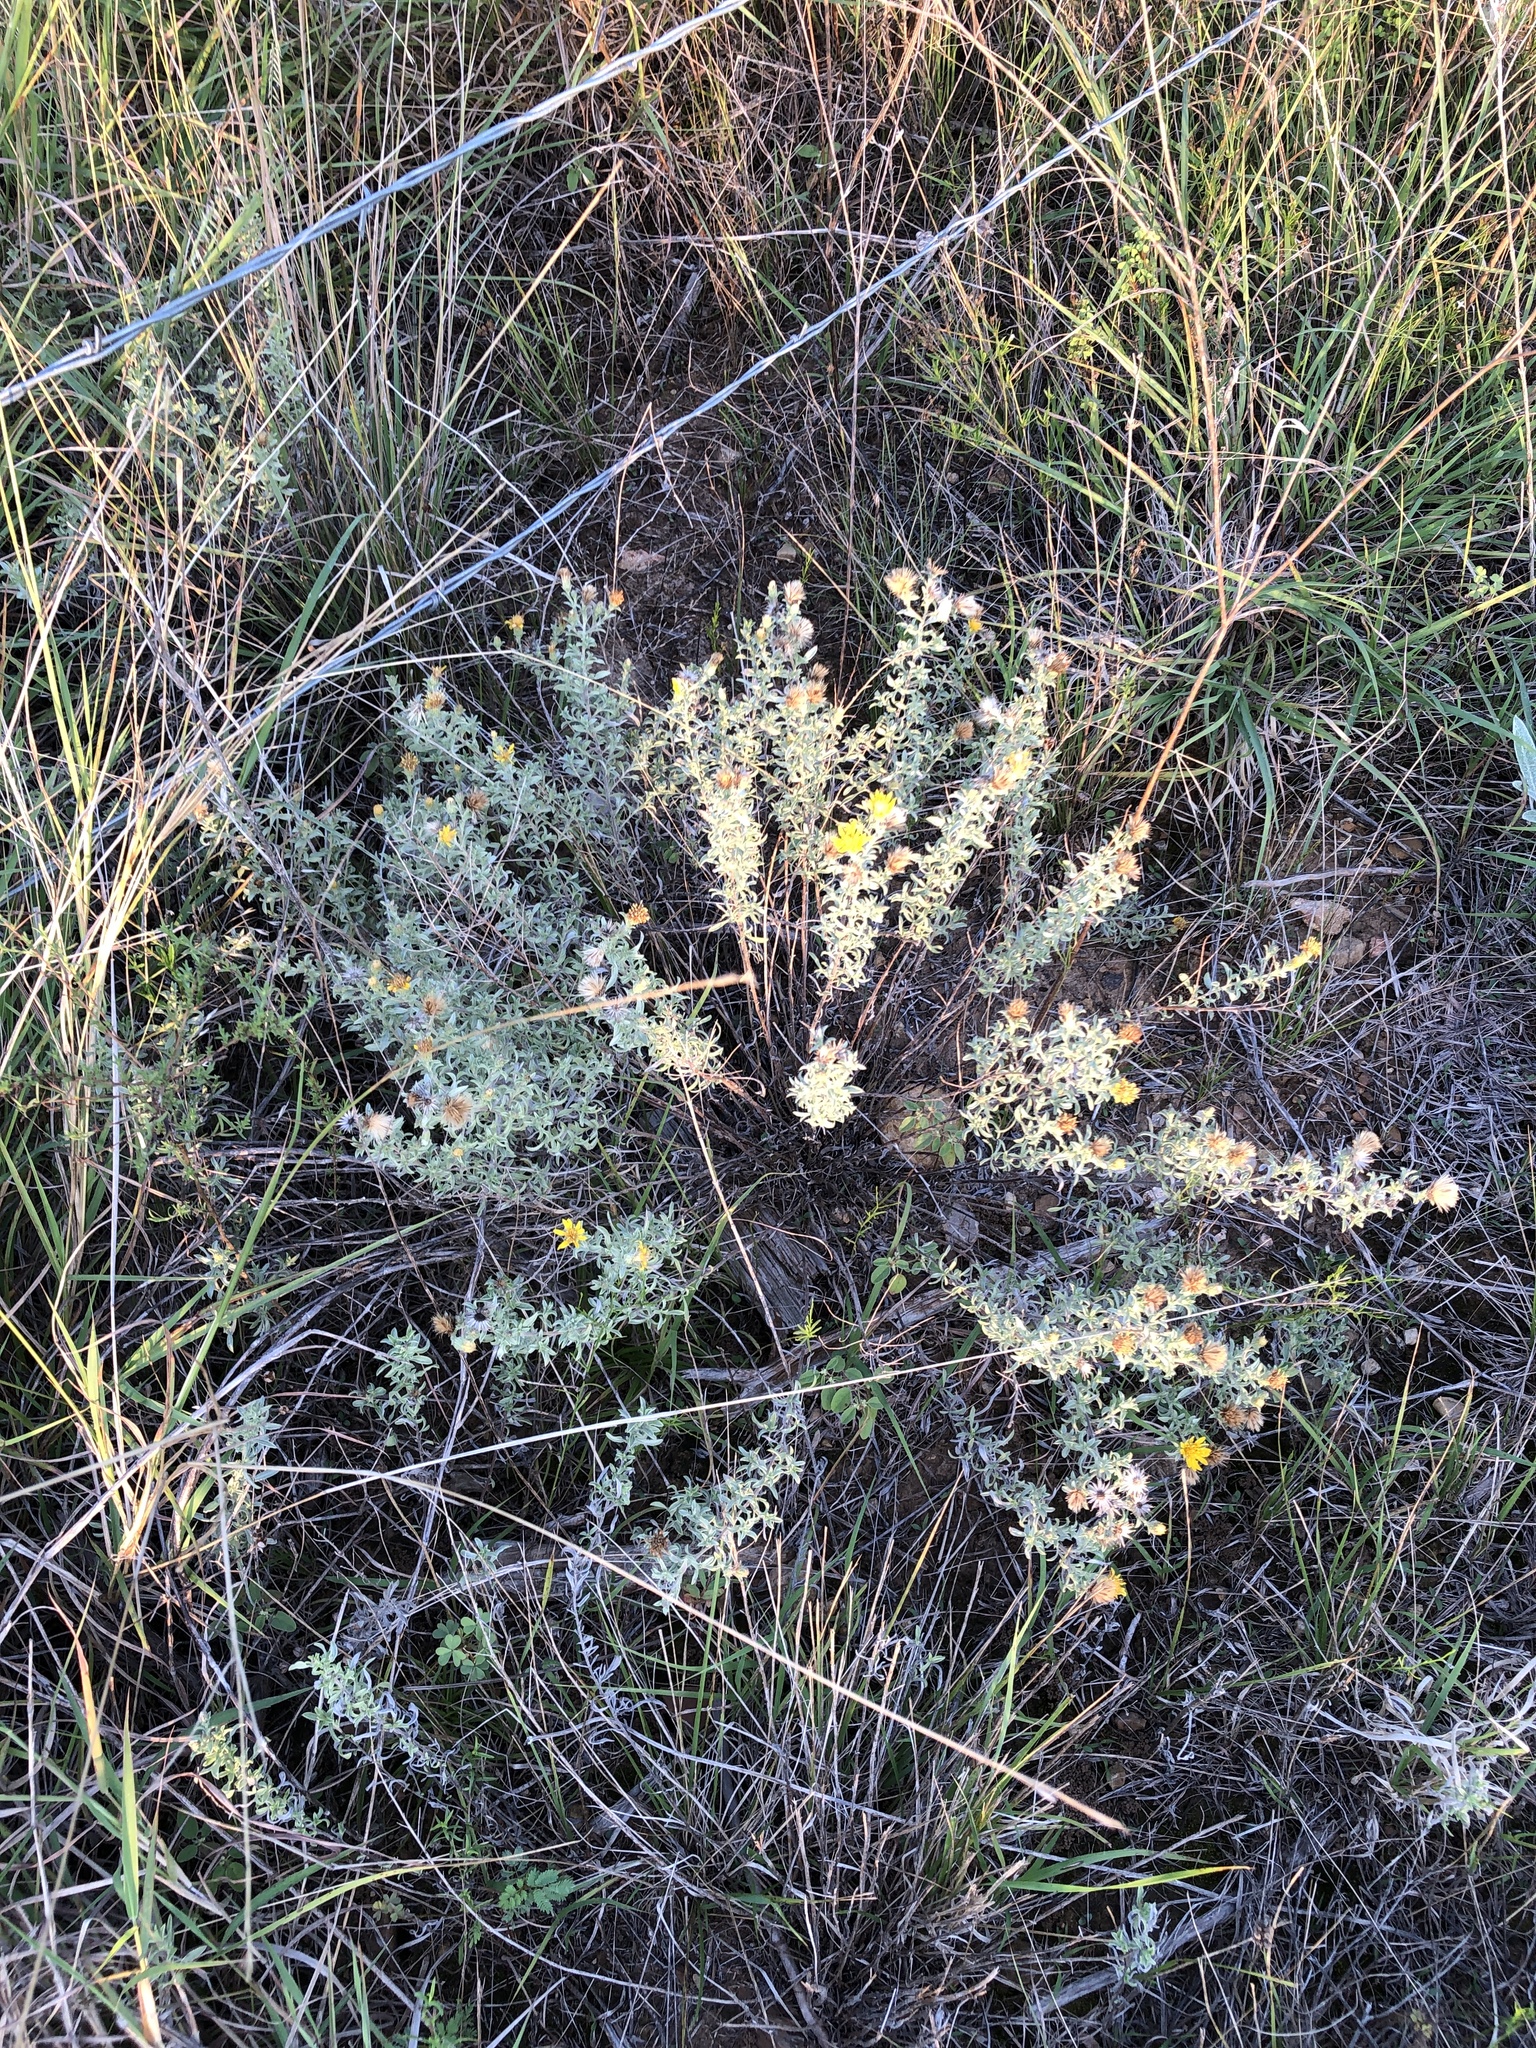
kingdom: Plantae
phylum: Tracheophyta
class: Magnoliopsida
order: Asterales
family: Asteraceae
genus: Heterotheca
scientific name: Heterotheca canescens
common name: Hoary golden-aster
